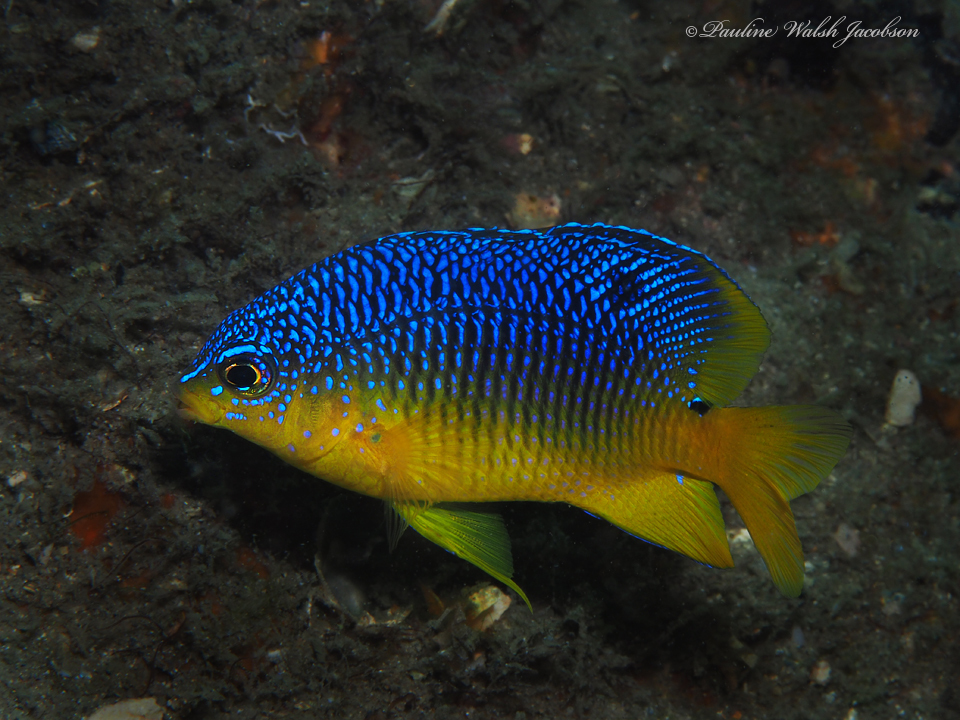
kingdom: Animalia
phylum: Chordata
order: Perciformes
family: Pomacentridae
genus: Stegastes
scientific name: Stegastes xanthurus
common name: Cocoa damselfish
